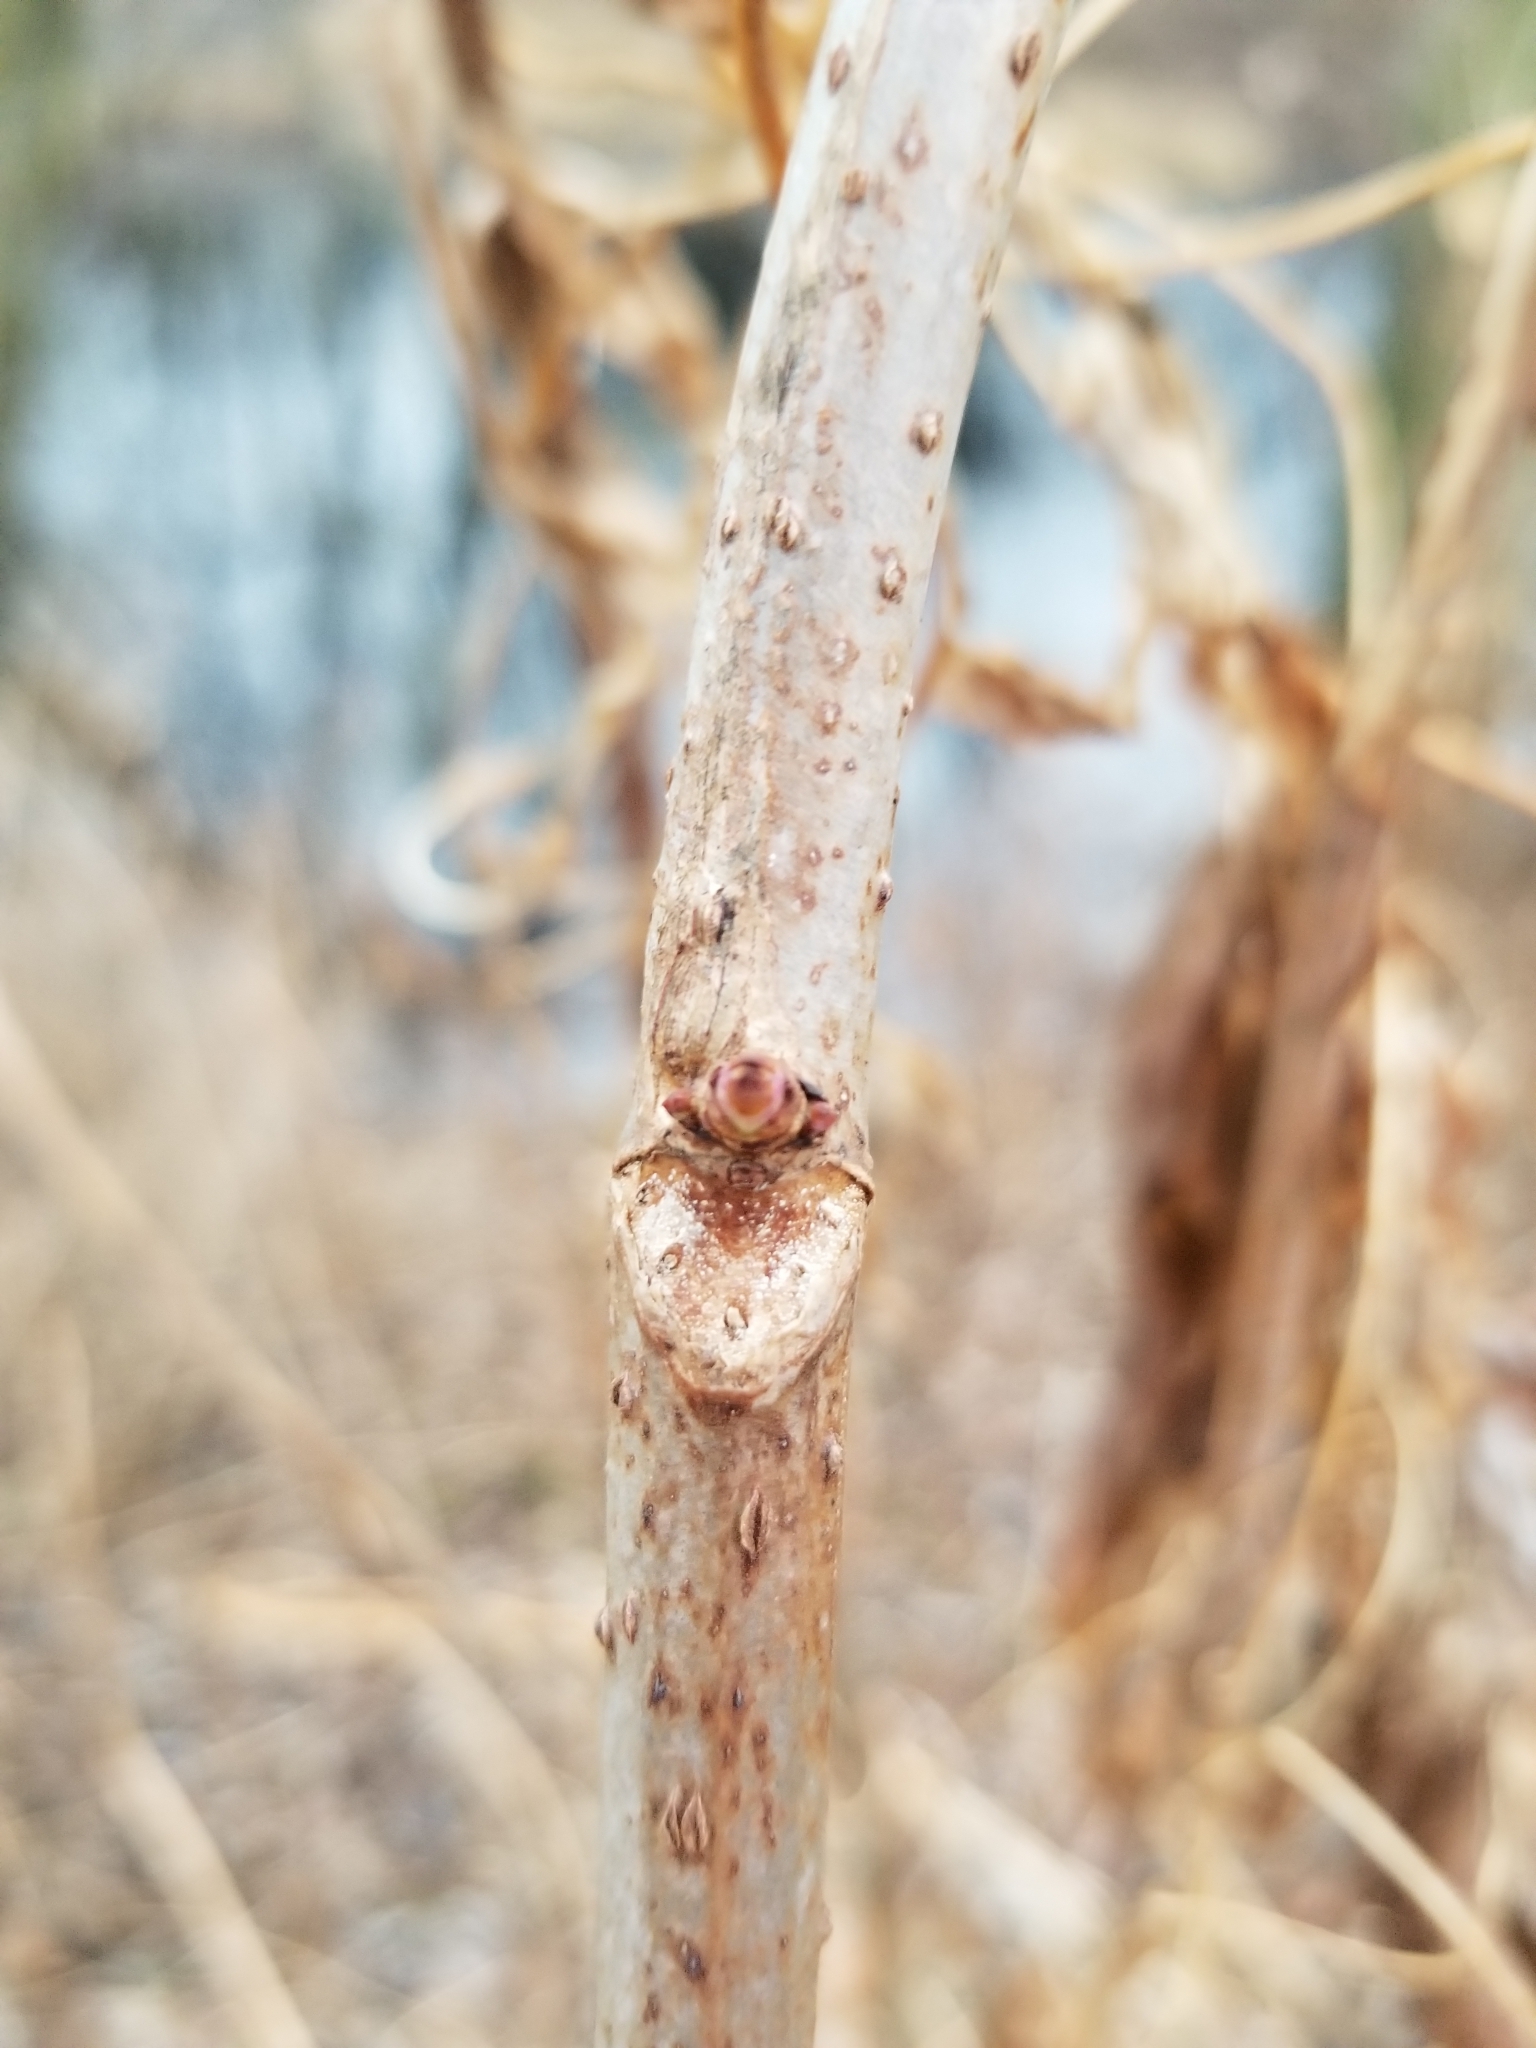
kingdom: Plantae
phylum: Tracheophyta
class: Magnoliopsida
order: Dipsacales
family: Viburnaceae
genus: Sambucus
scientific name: Sambucus canadensis
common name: American elder
